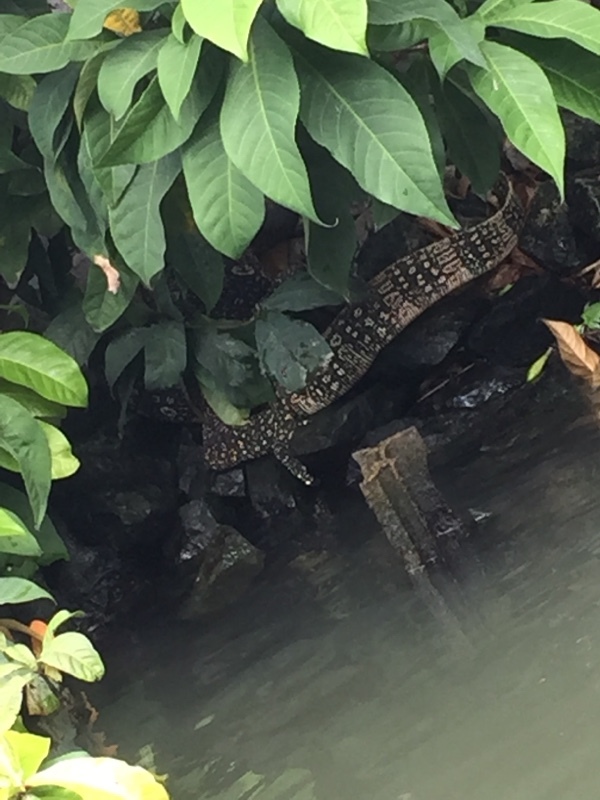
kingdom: Animalia
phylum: Chordata
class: Squamata
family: Varanidae
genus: Varanus
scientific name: Varanus salvator
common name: Common water monitor
